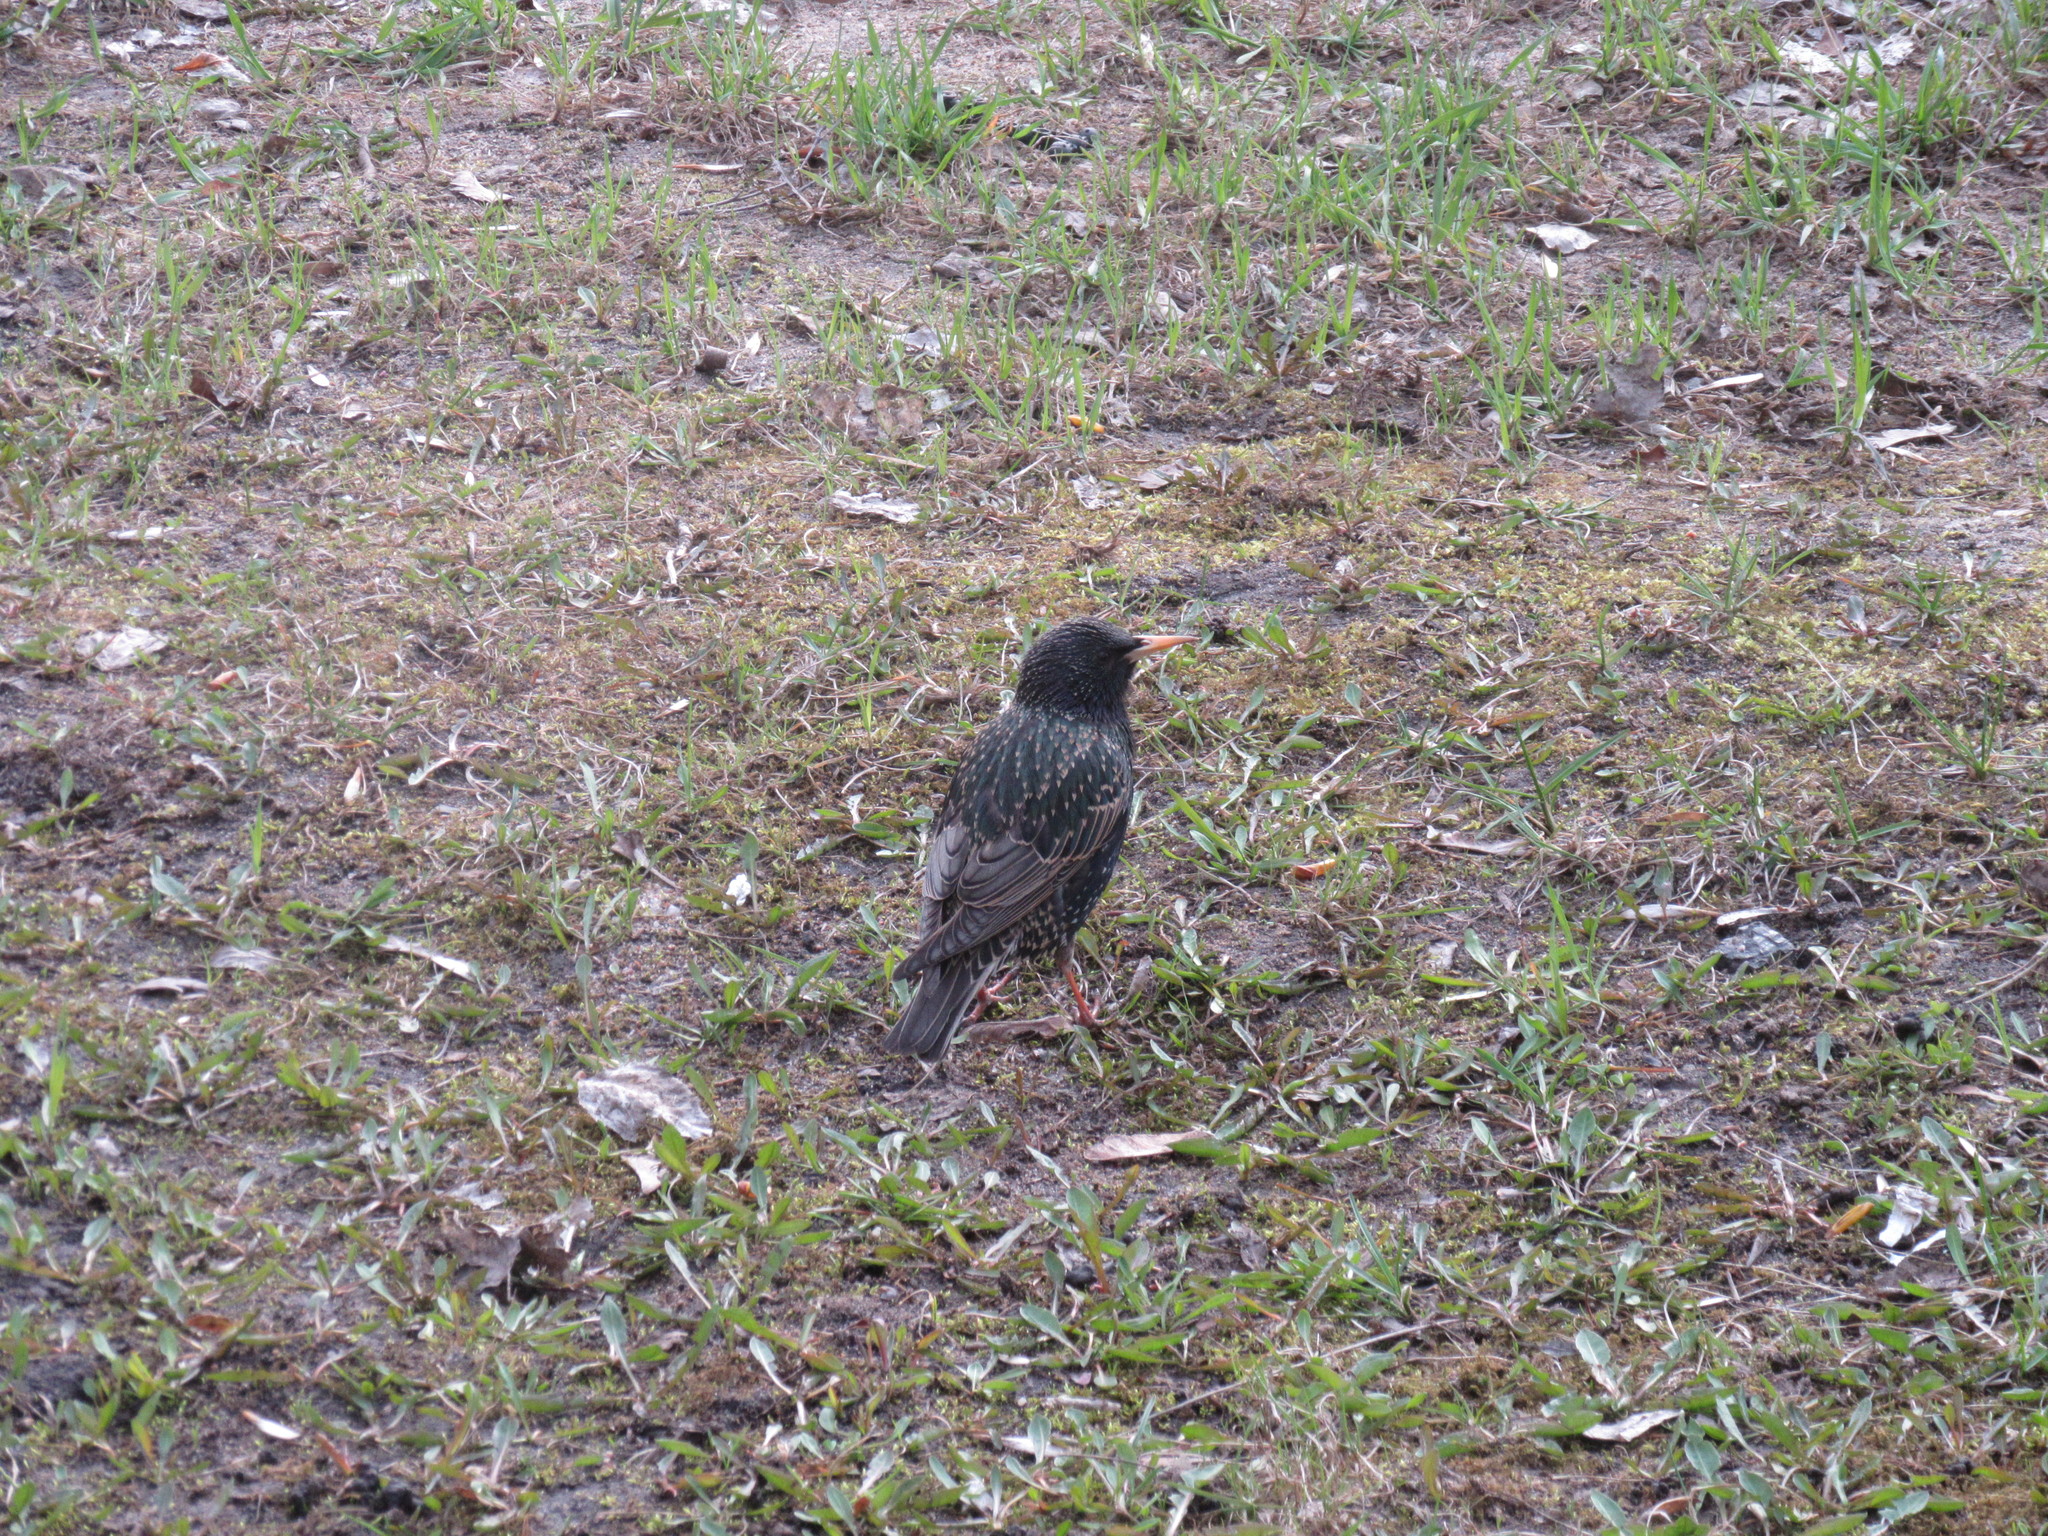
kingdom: Animalia
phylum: Chordata
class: Aves
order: Passeriformes
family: Sturnidae
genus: Sturnus
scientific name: Sturnus vulgaris
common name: Common starling
